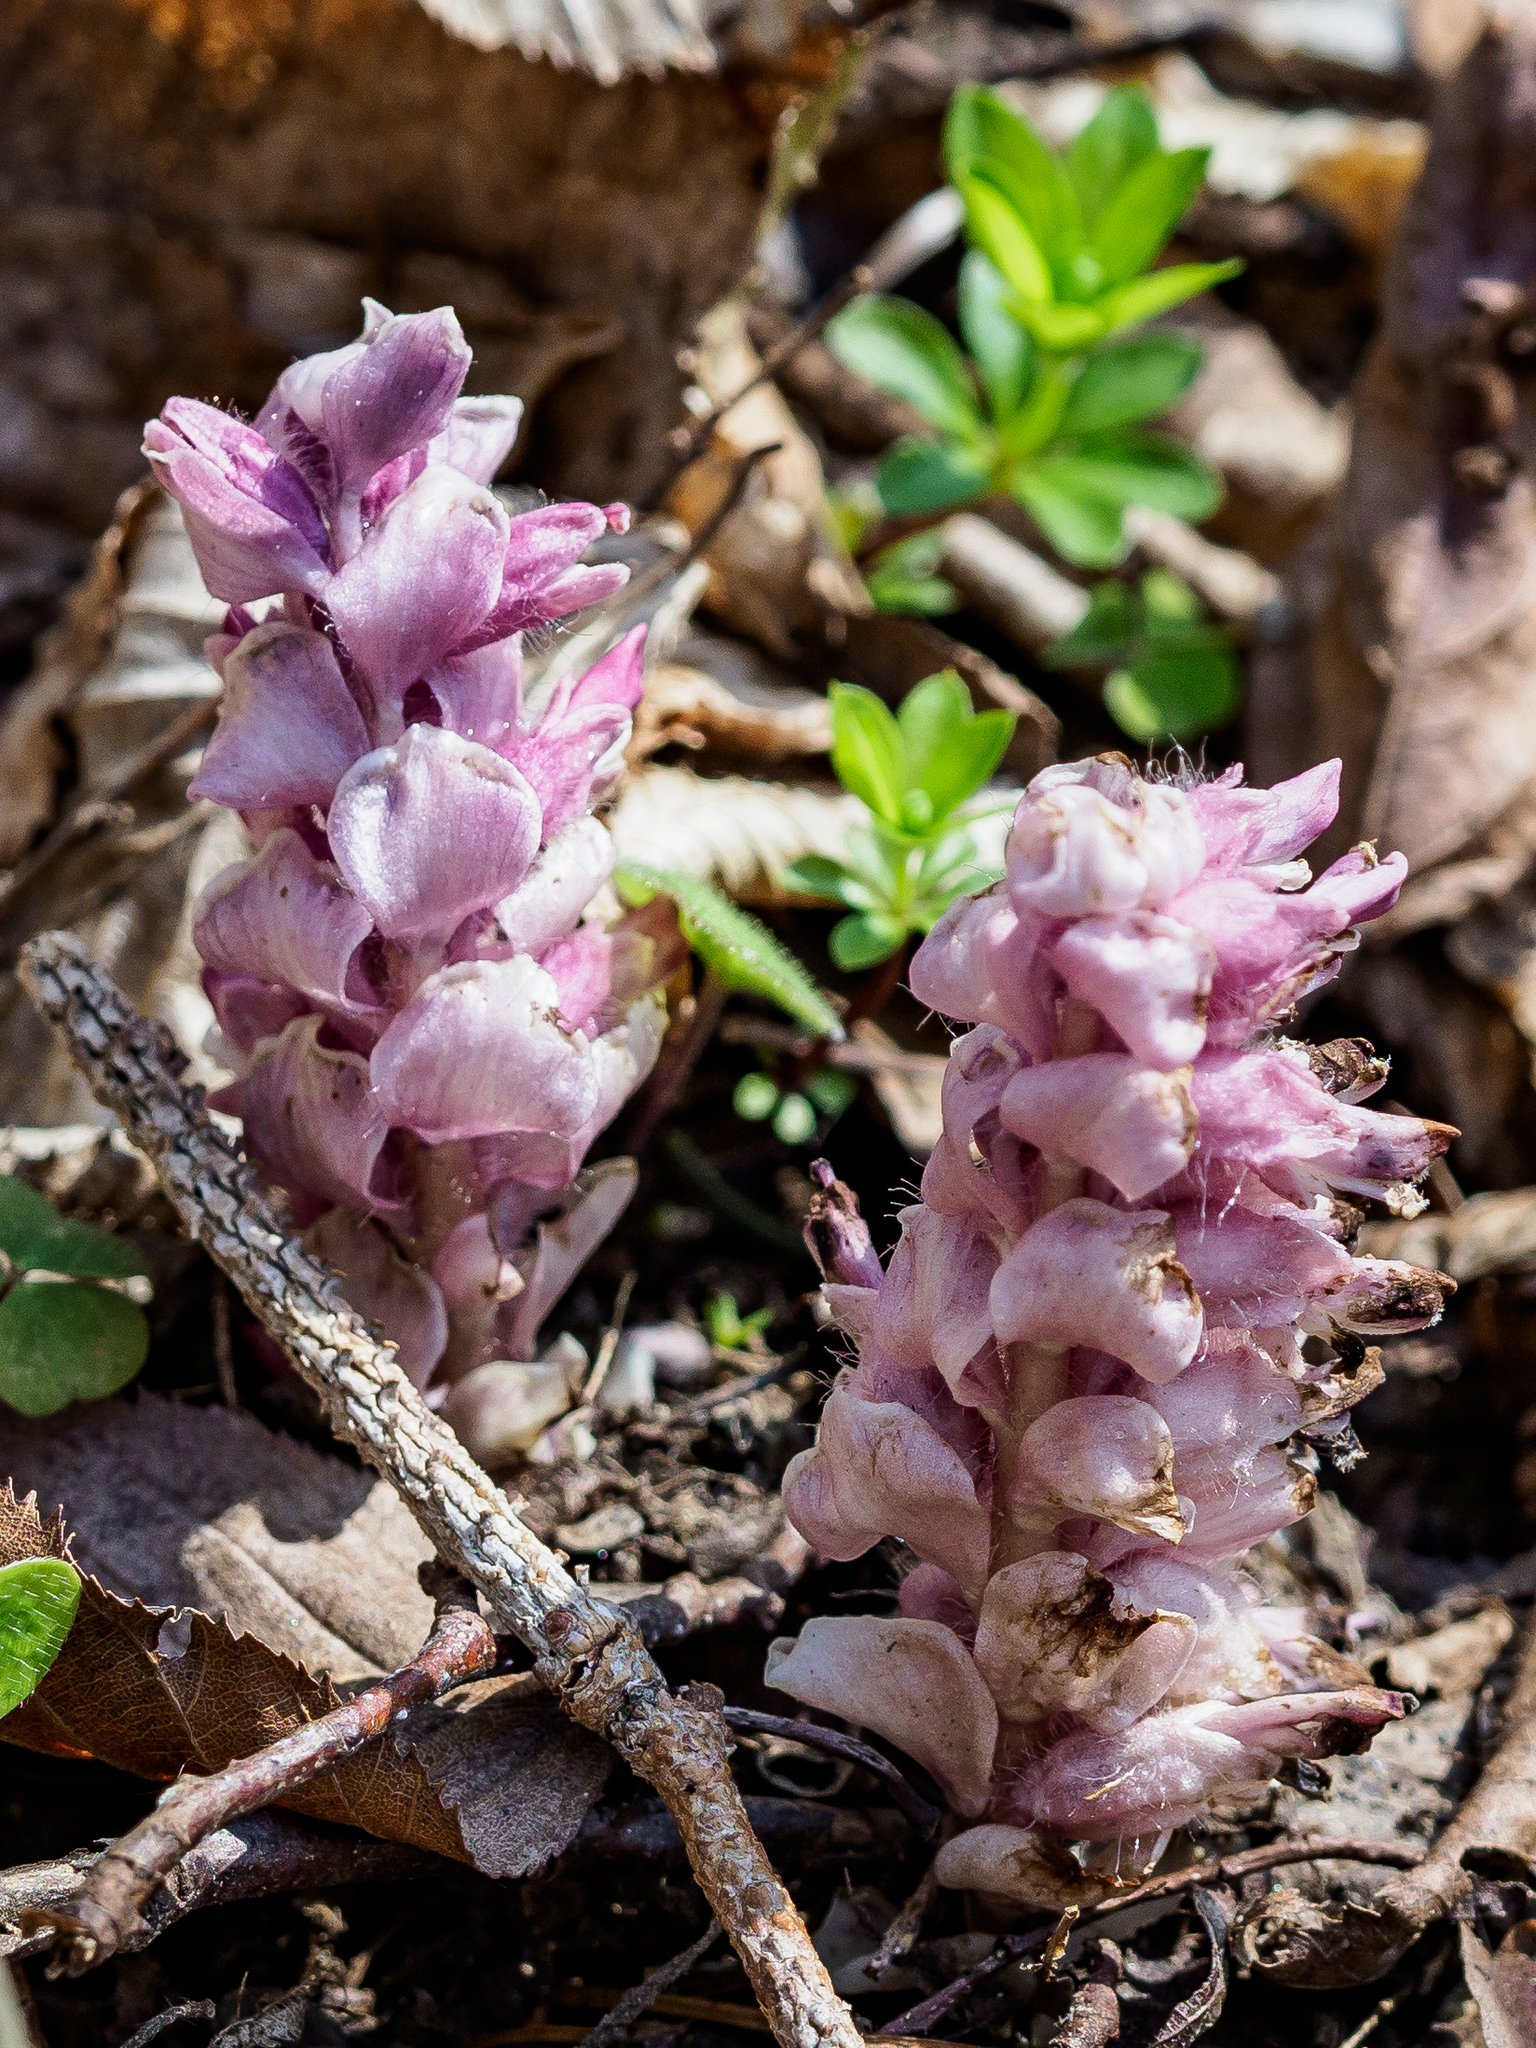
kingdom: Plantae
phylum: Tracheophyta
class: Magnoliopsida
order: Lamiales
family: Orobanchaceae
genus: Lathraea
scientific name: Lathraea squamaria
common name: Toothwort
